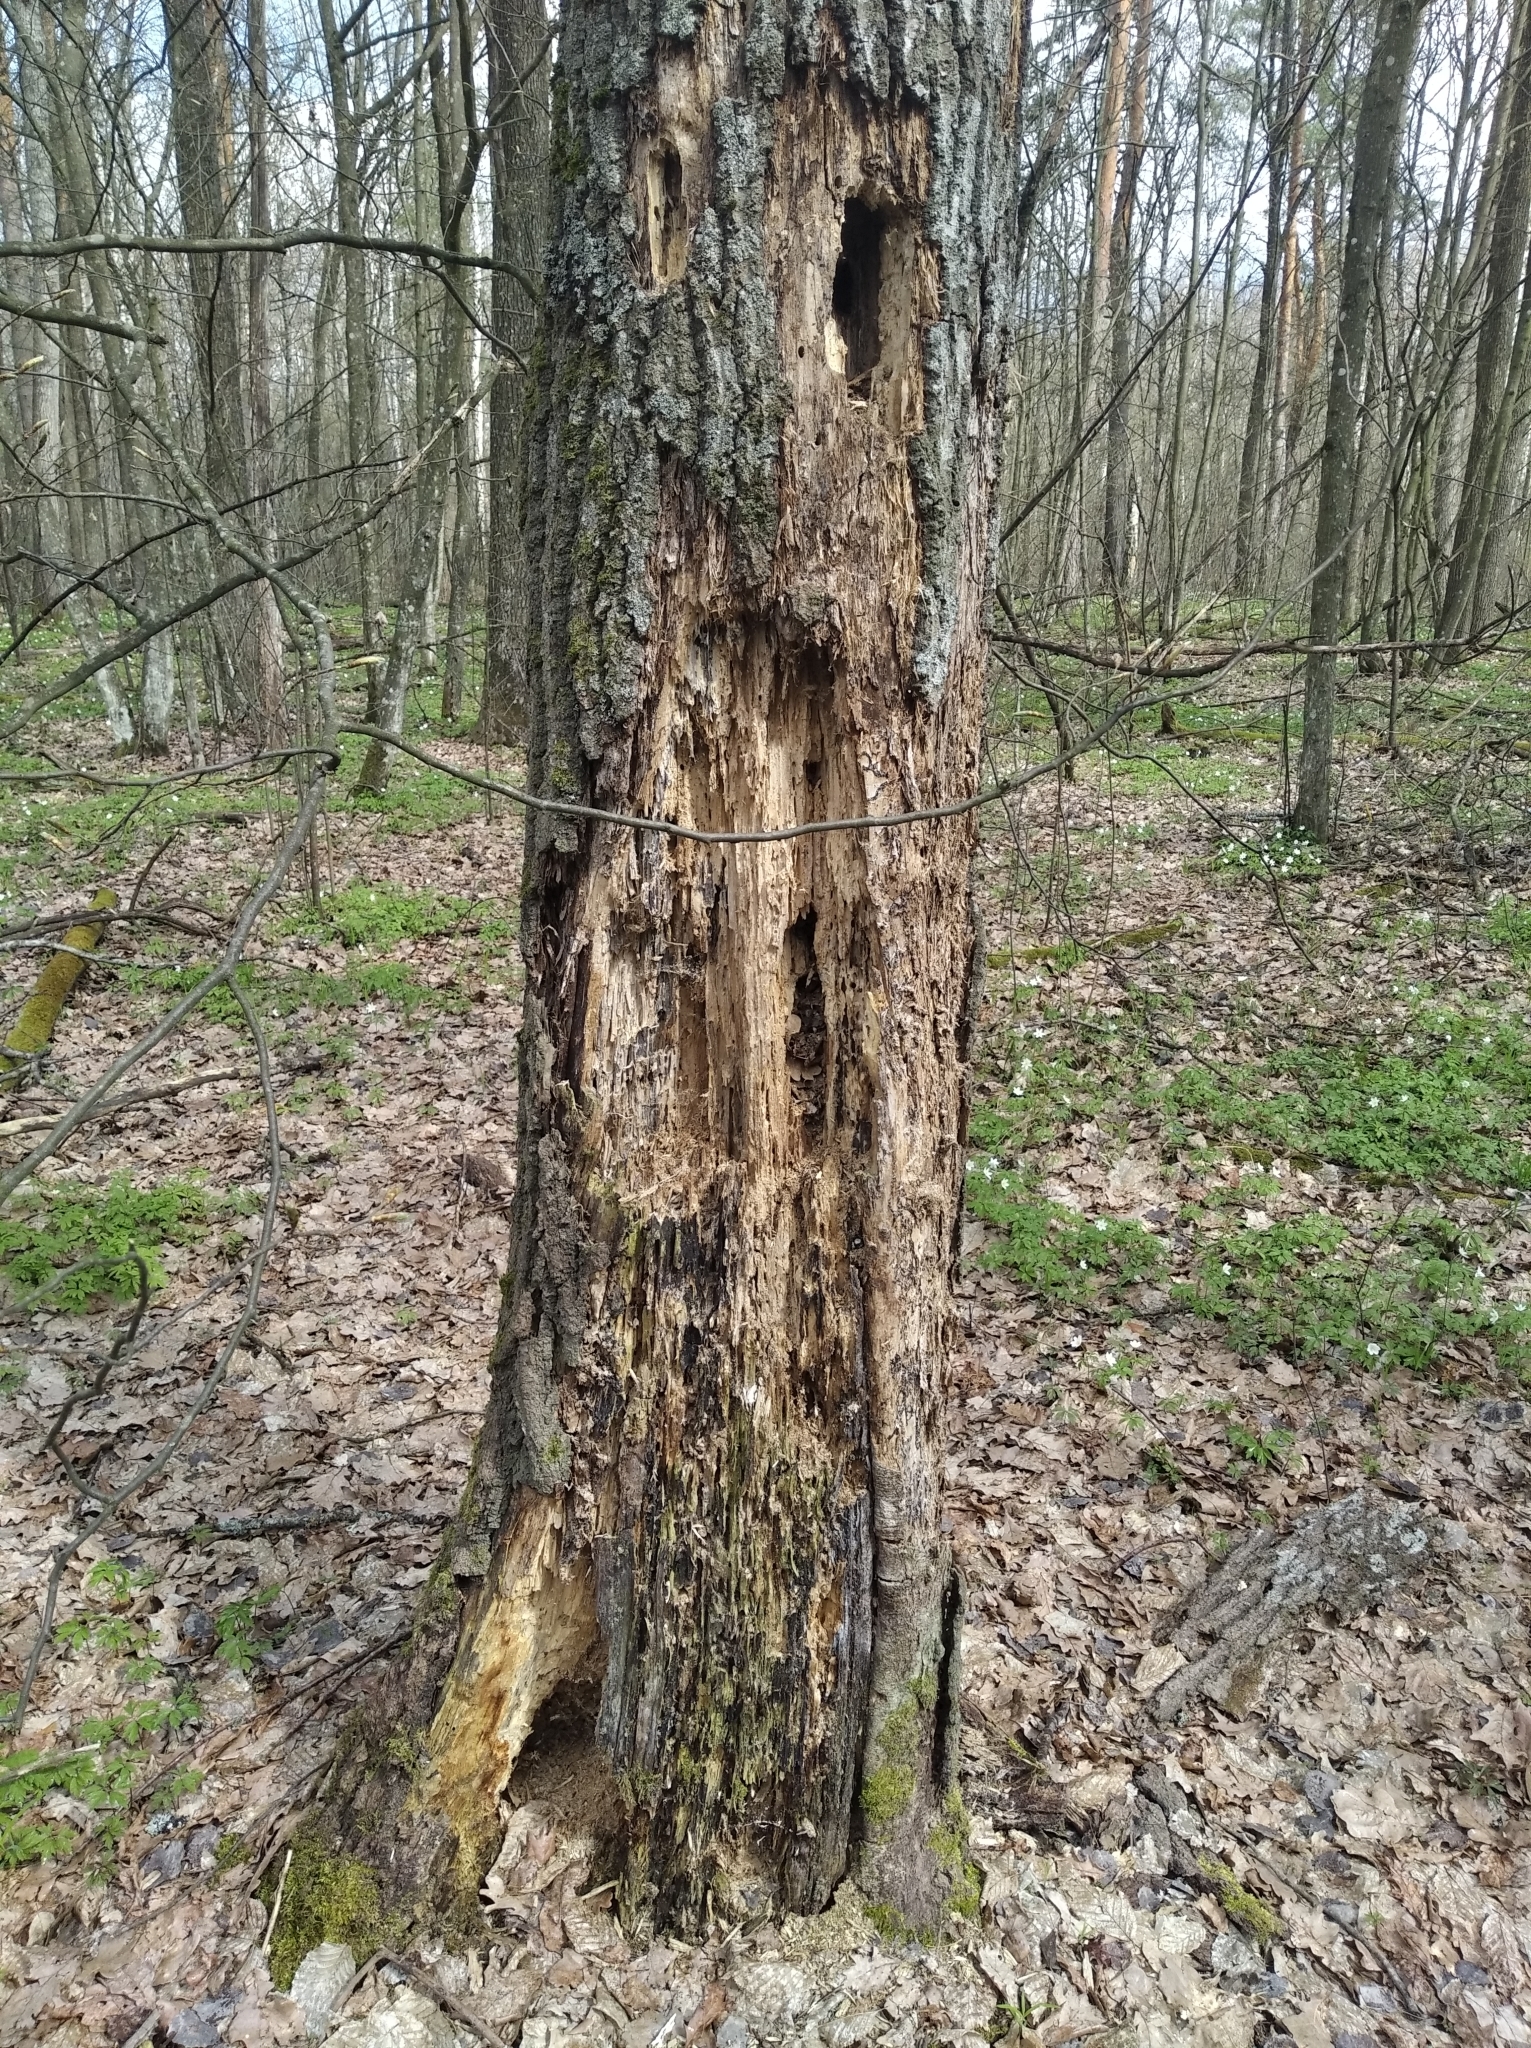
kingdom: Animalia
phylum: Chordata
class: Aves
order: Piciformes
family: Picidae
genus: Dryocopus
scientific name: Dryocopus martius
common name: Black woodpecker
